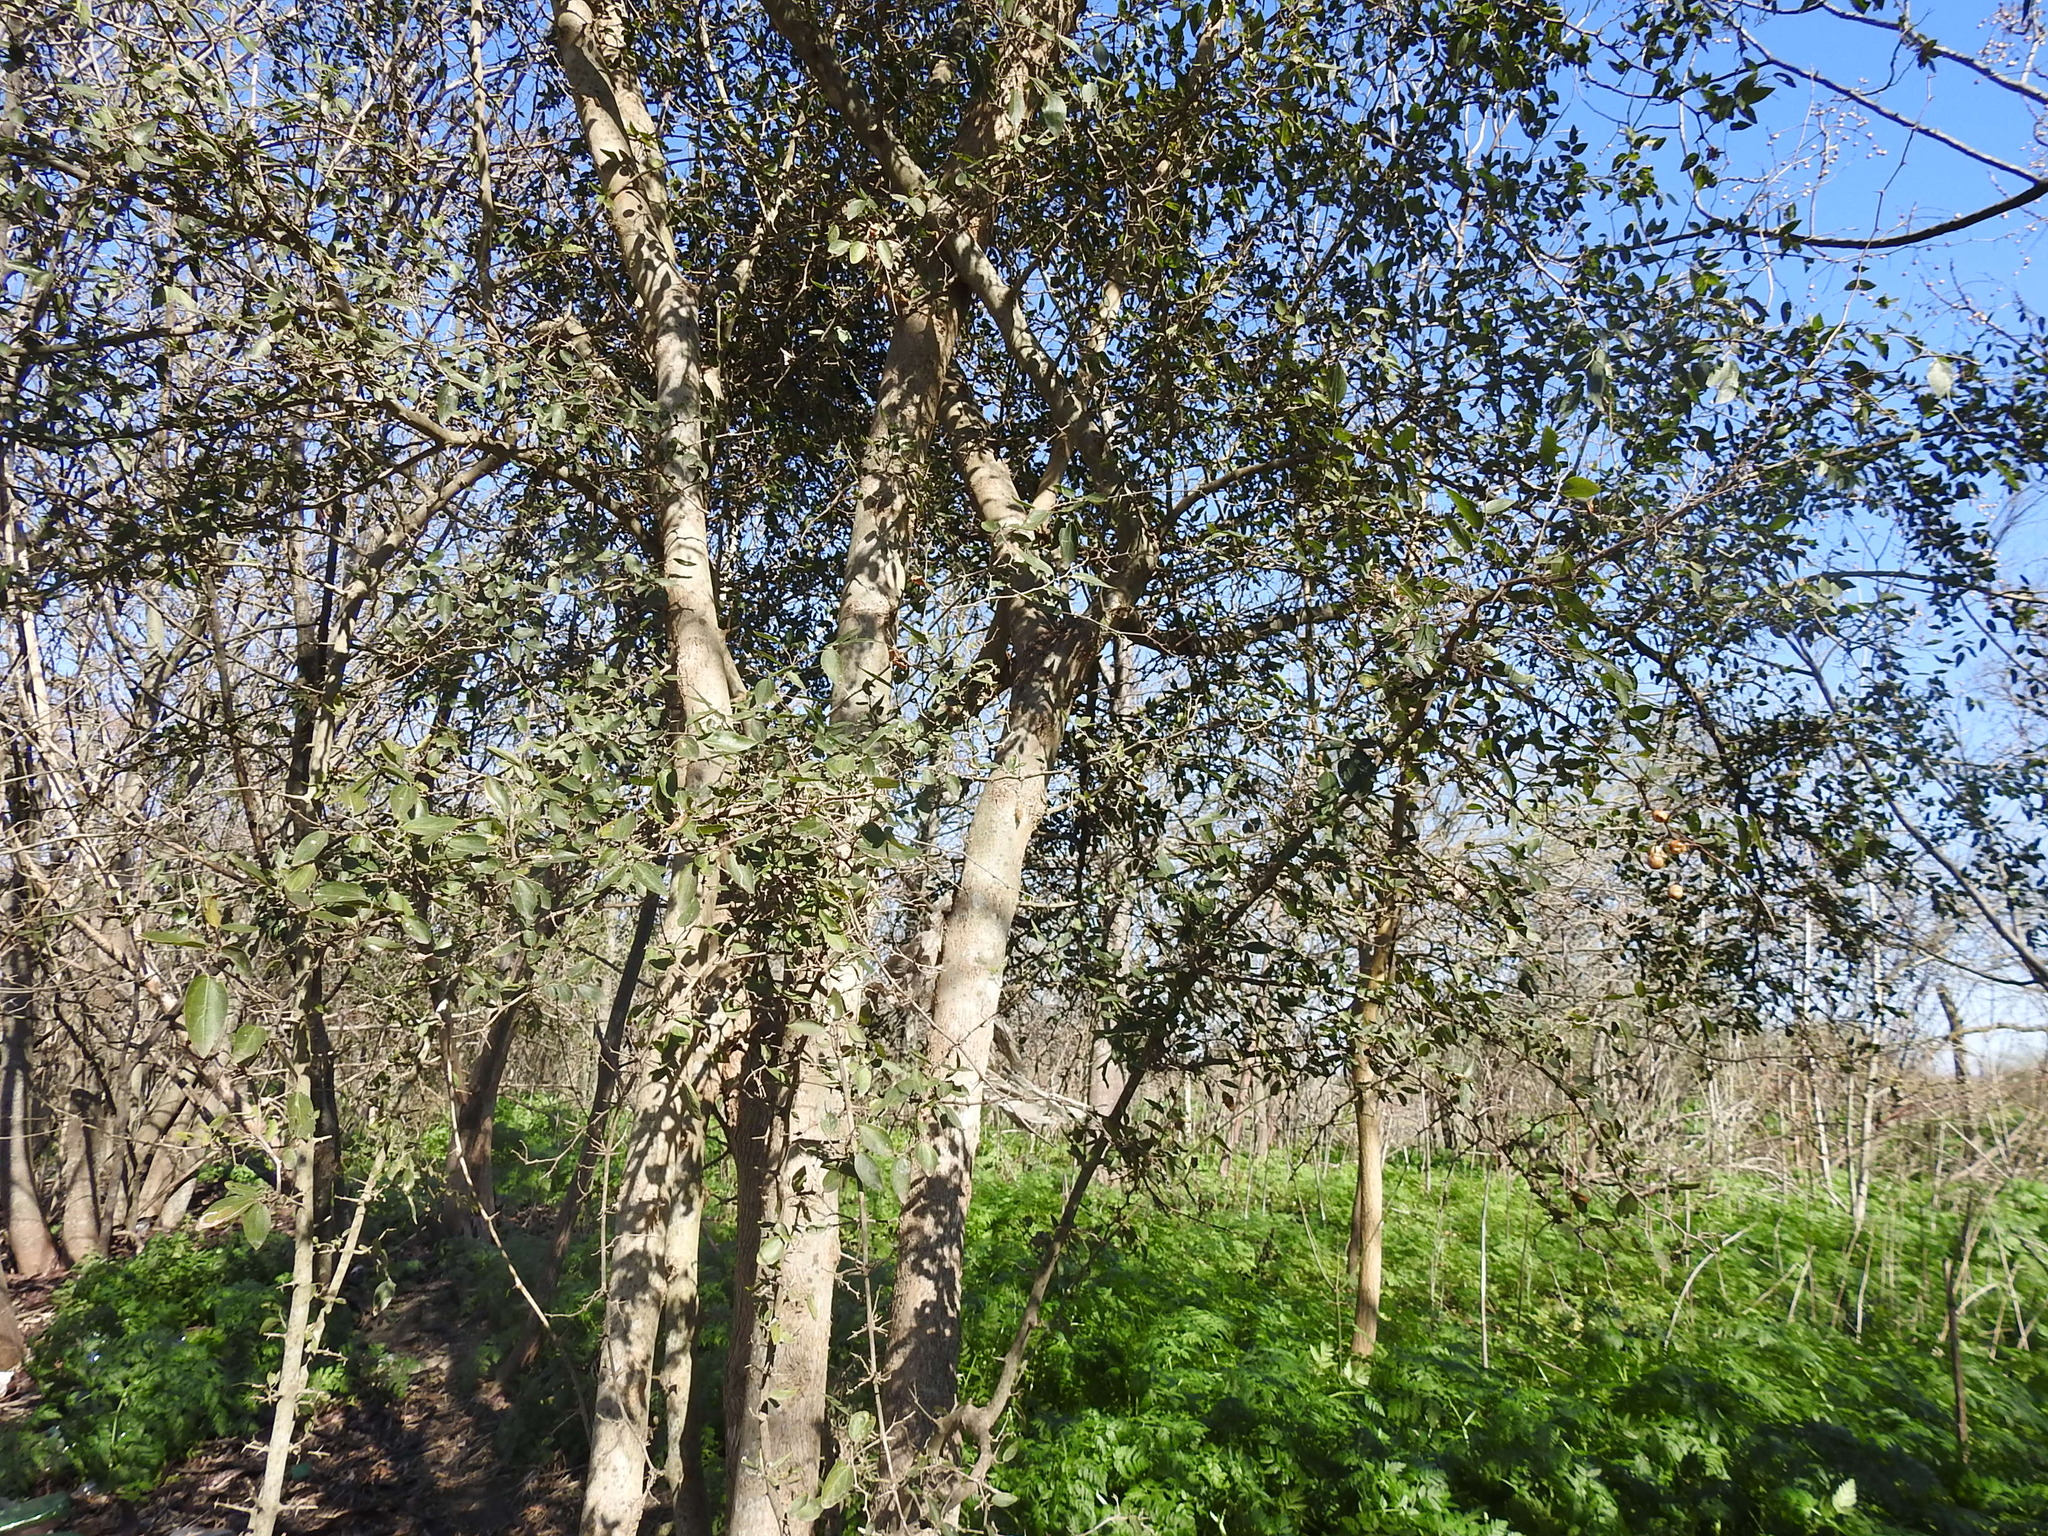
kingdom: Plantae
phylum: Tracheophyta
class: Magnoliopsida
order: Rosales
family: Cannabaceae
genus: Celtis
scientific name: Celtis tala
